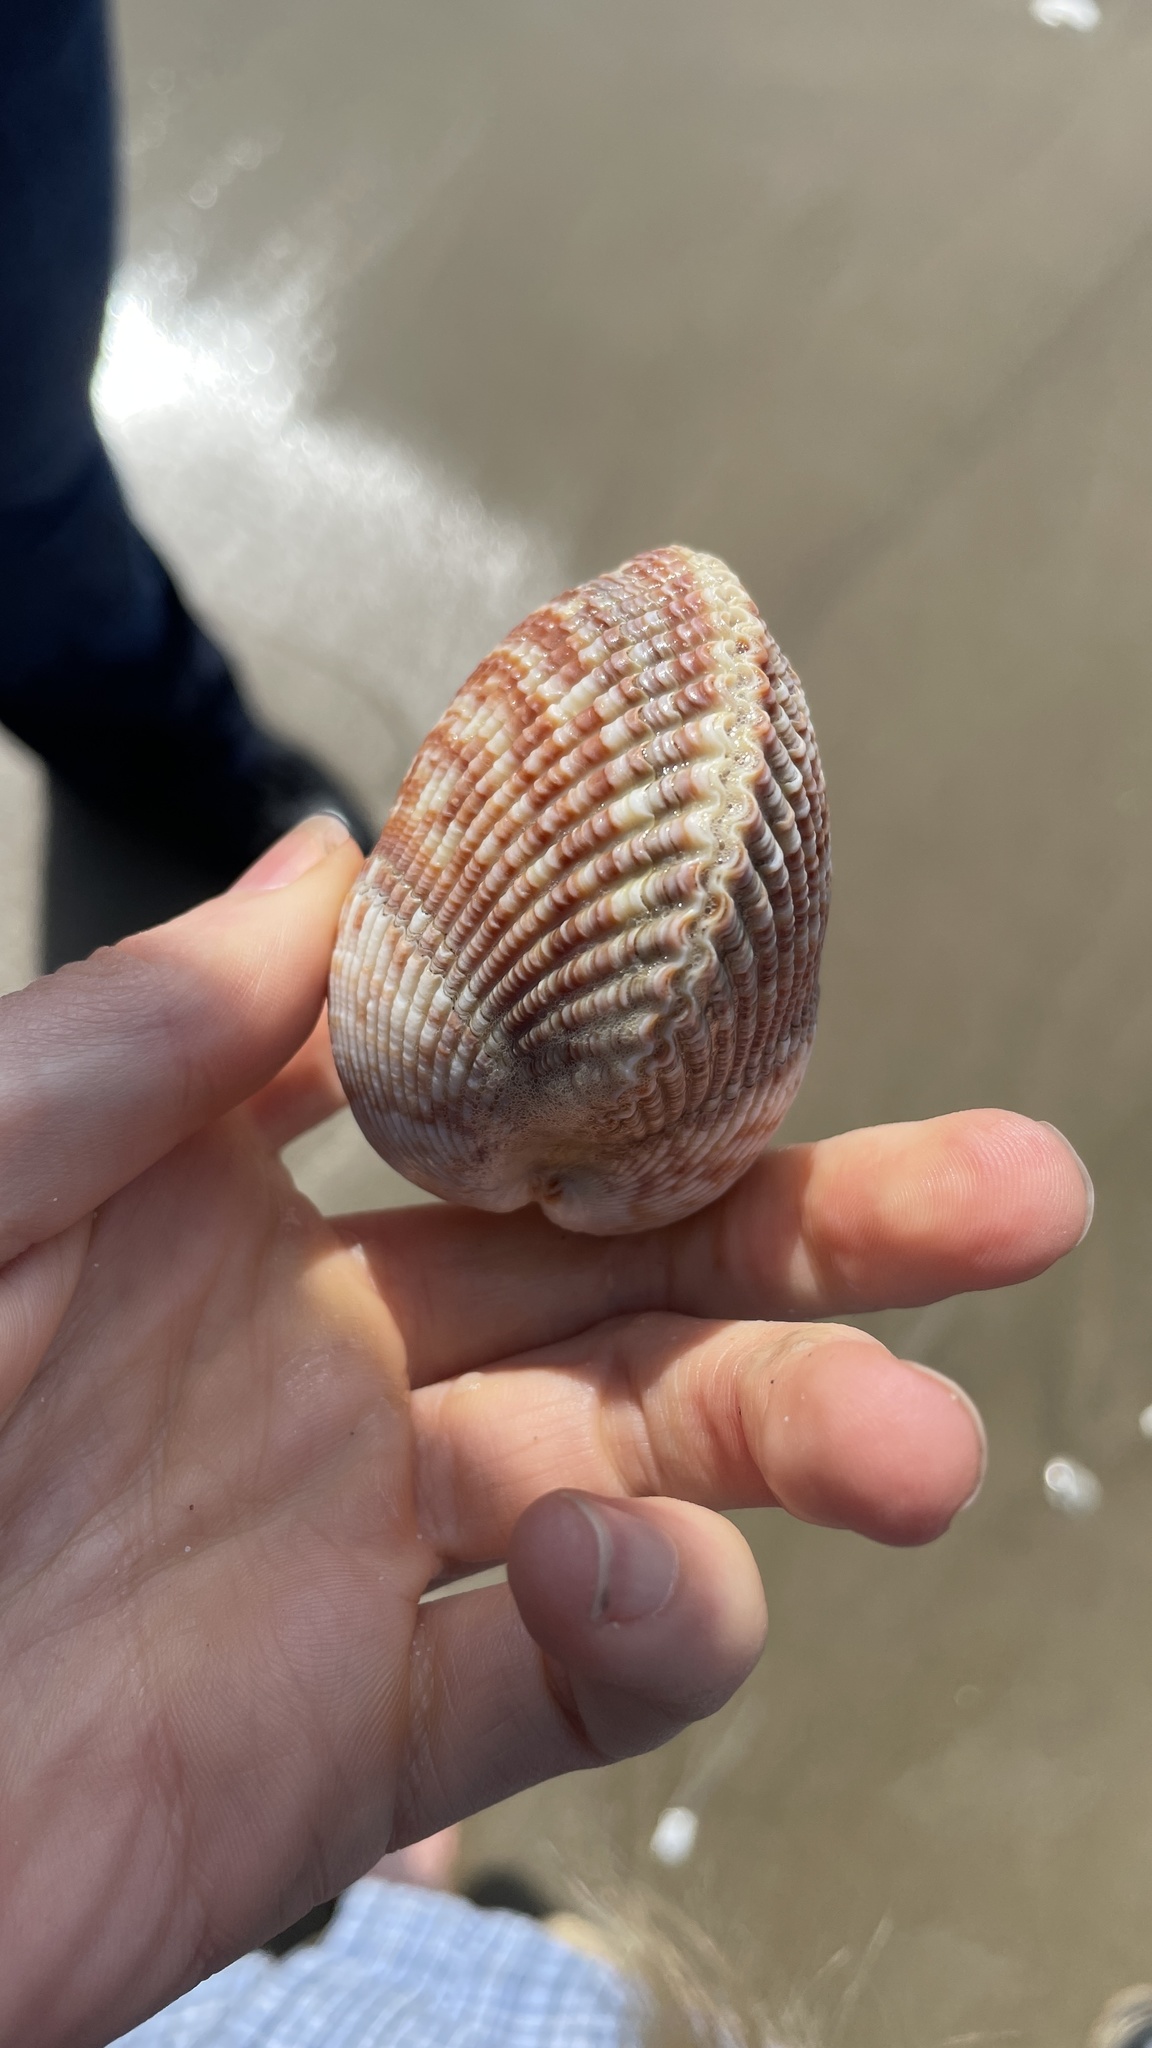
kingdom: Animalia
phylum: Mollusca
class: Bivalvia
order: Cardiida
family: Cardiidae
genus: Clinocardium
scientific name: Clinocardium nuttallii
